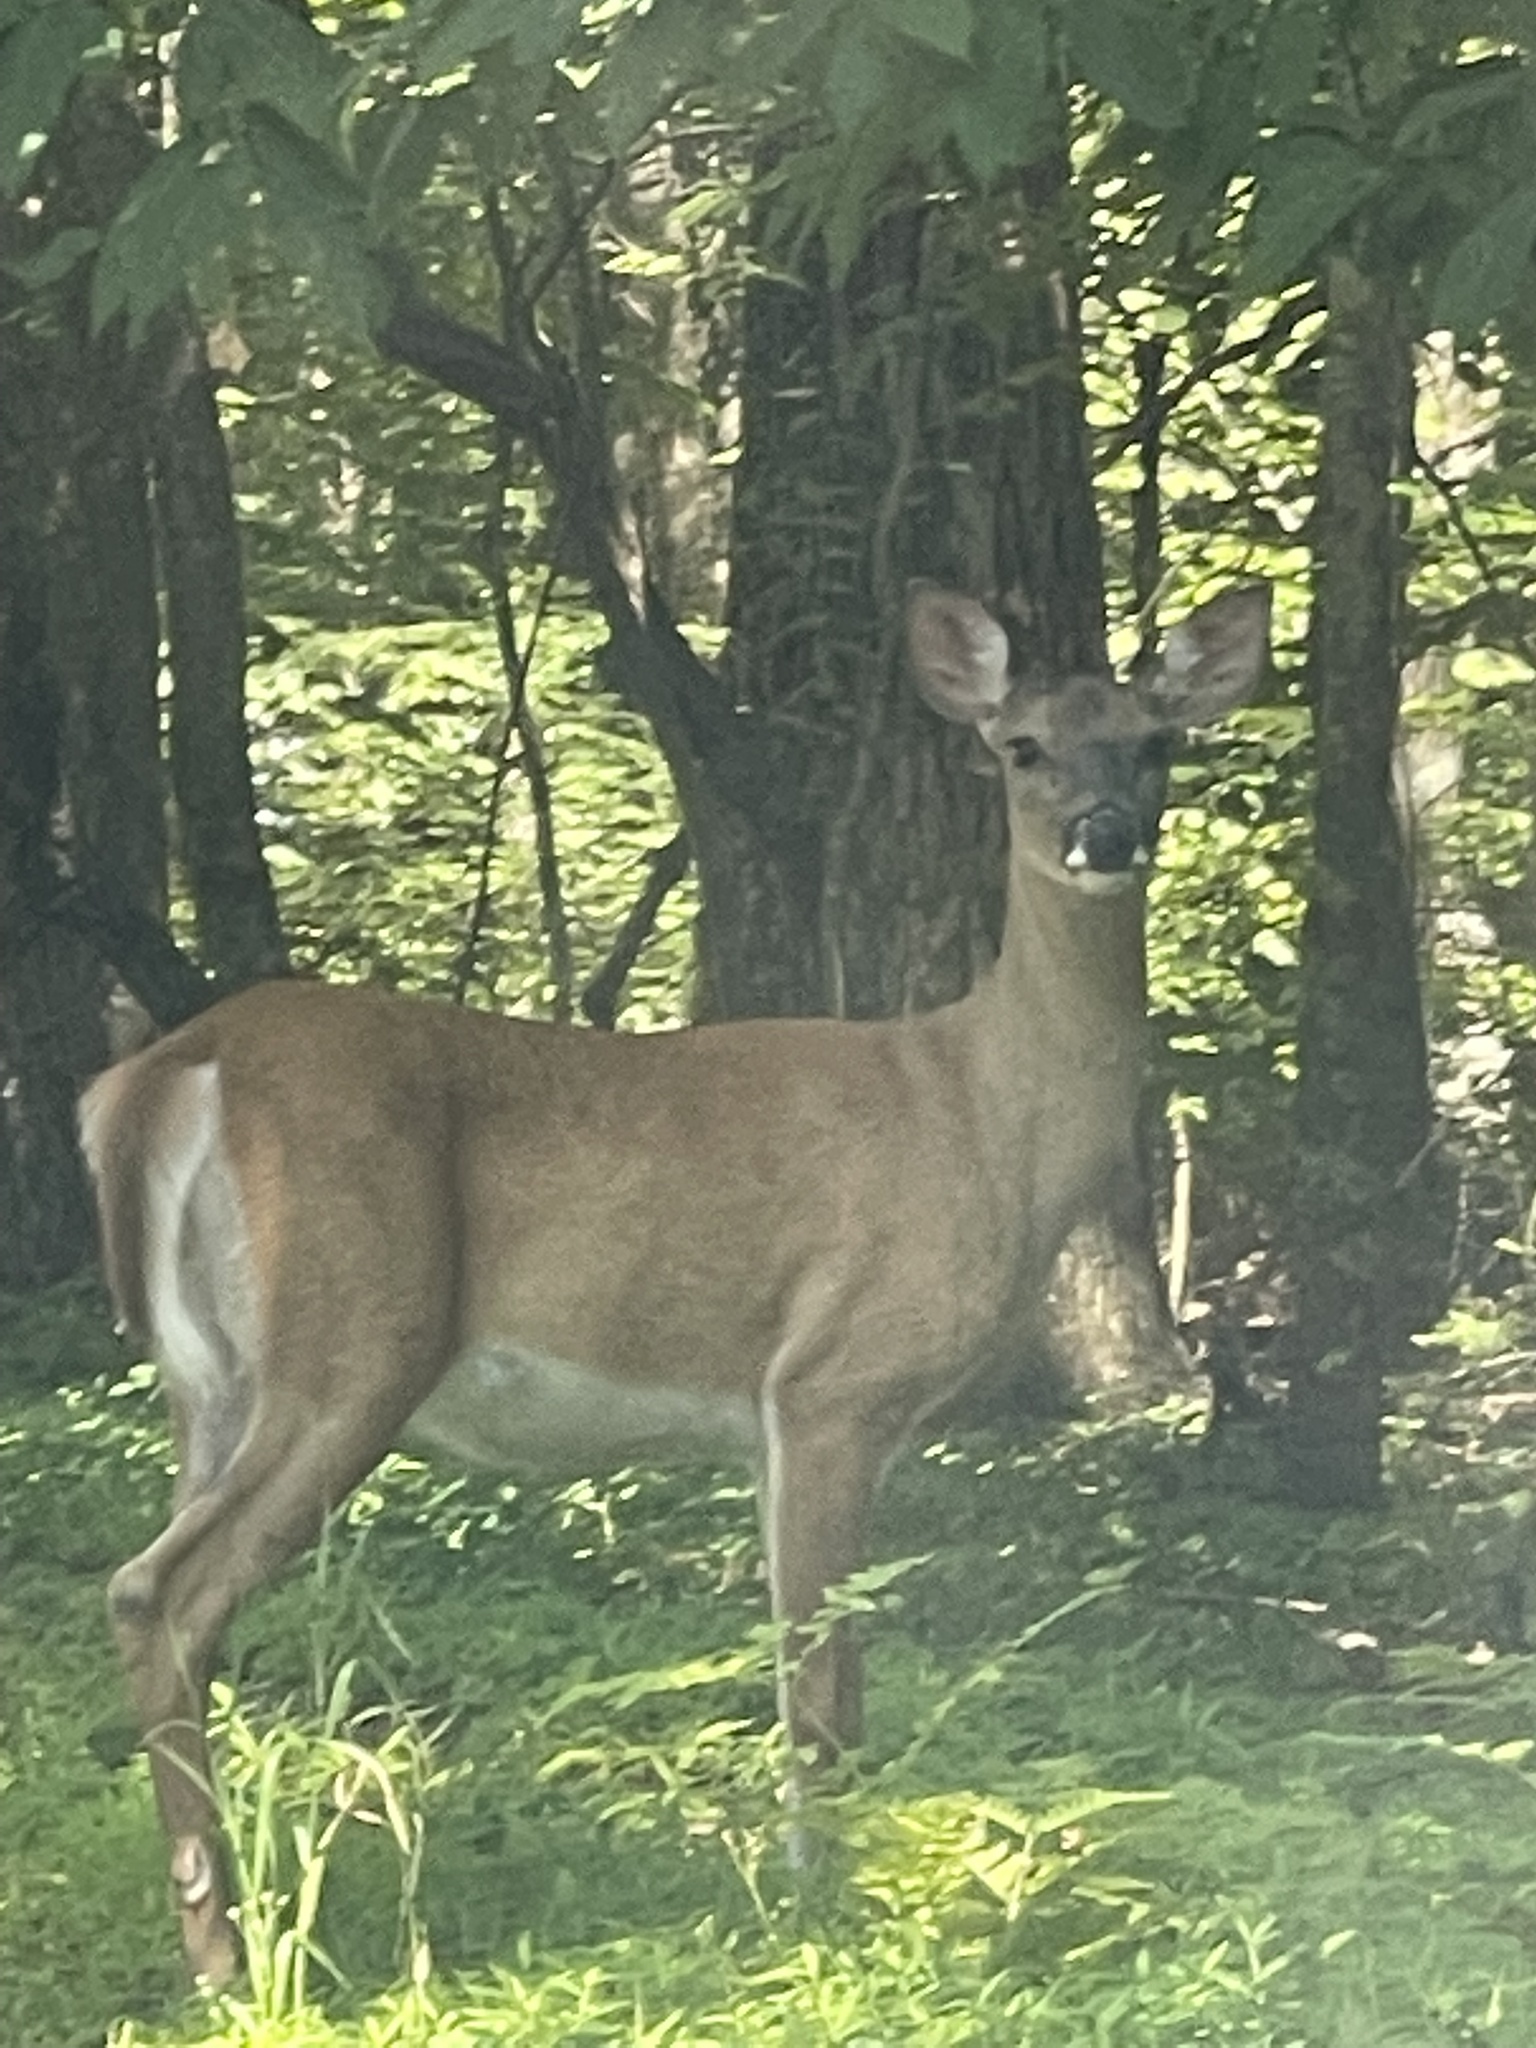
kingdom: Animalia
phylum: Chordata
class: Mammalia
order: Artiodactyla
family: Cervidae
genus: Odocoileus
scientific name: Odocoileus virginianus
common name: White-tailed deer
